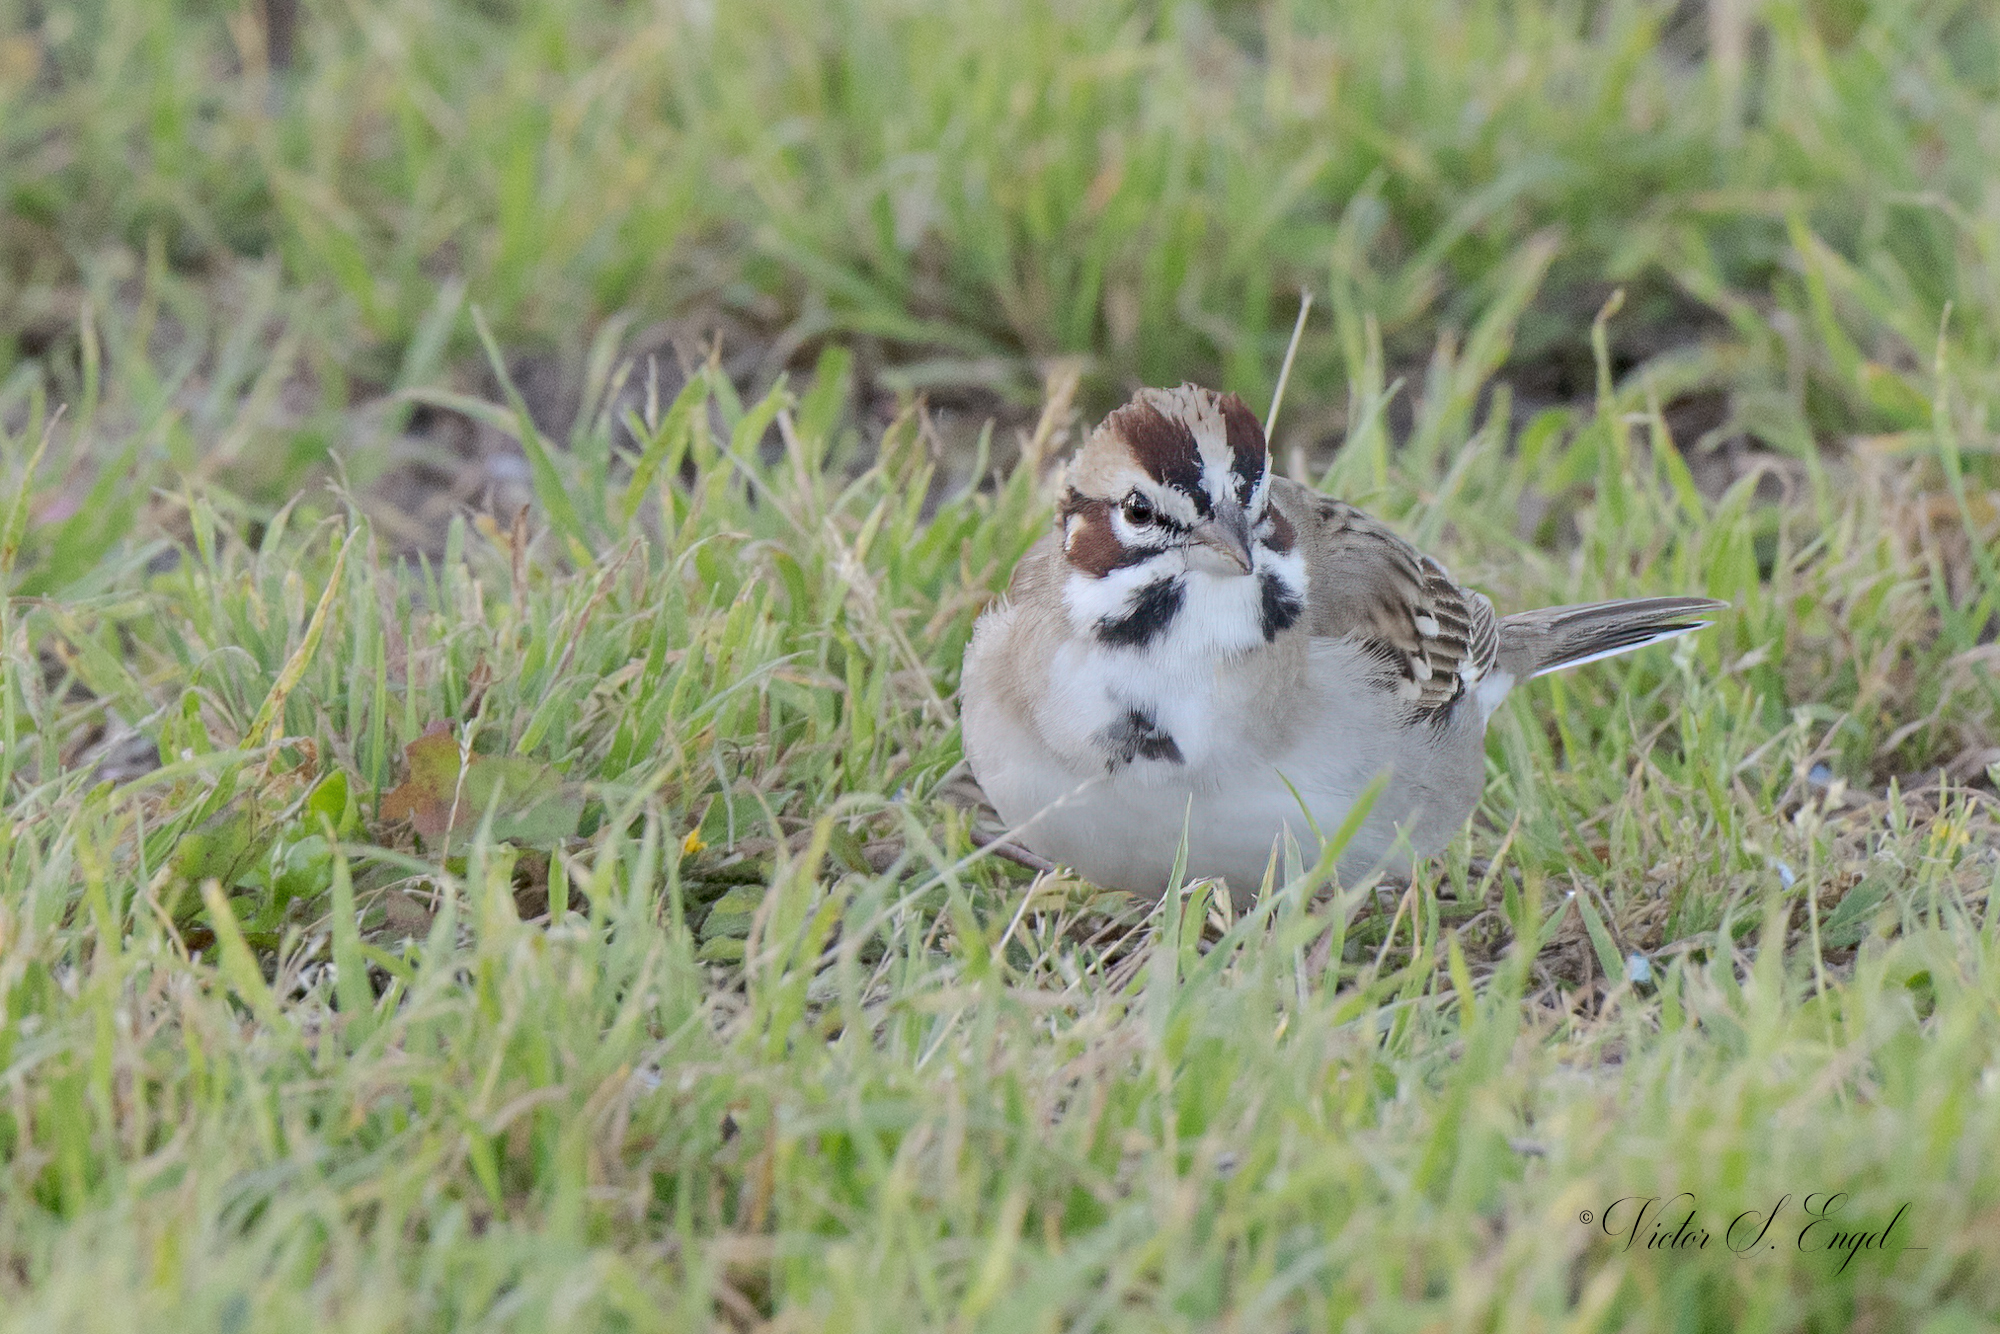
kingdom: Animalia
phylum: Chordata
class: Aves
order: Passeriformes
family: Passerellidae
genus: Chondestes
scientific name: Chondestes grammacus
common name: Lark sparrow
